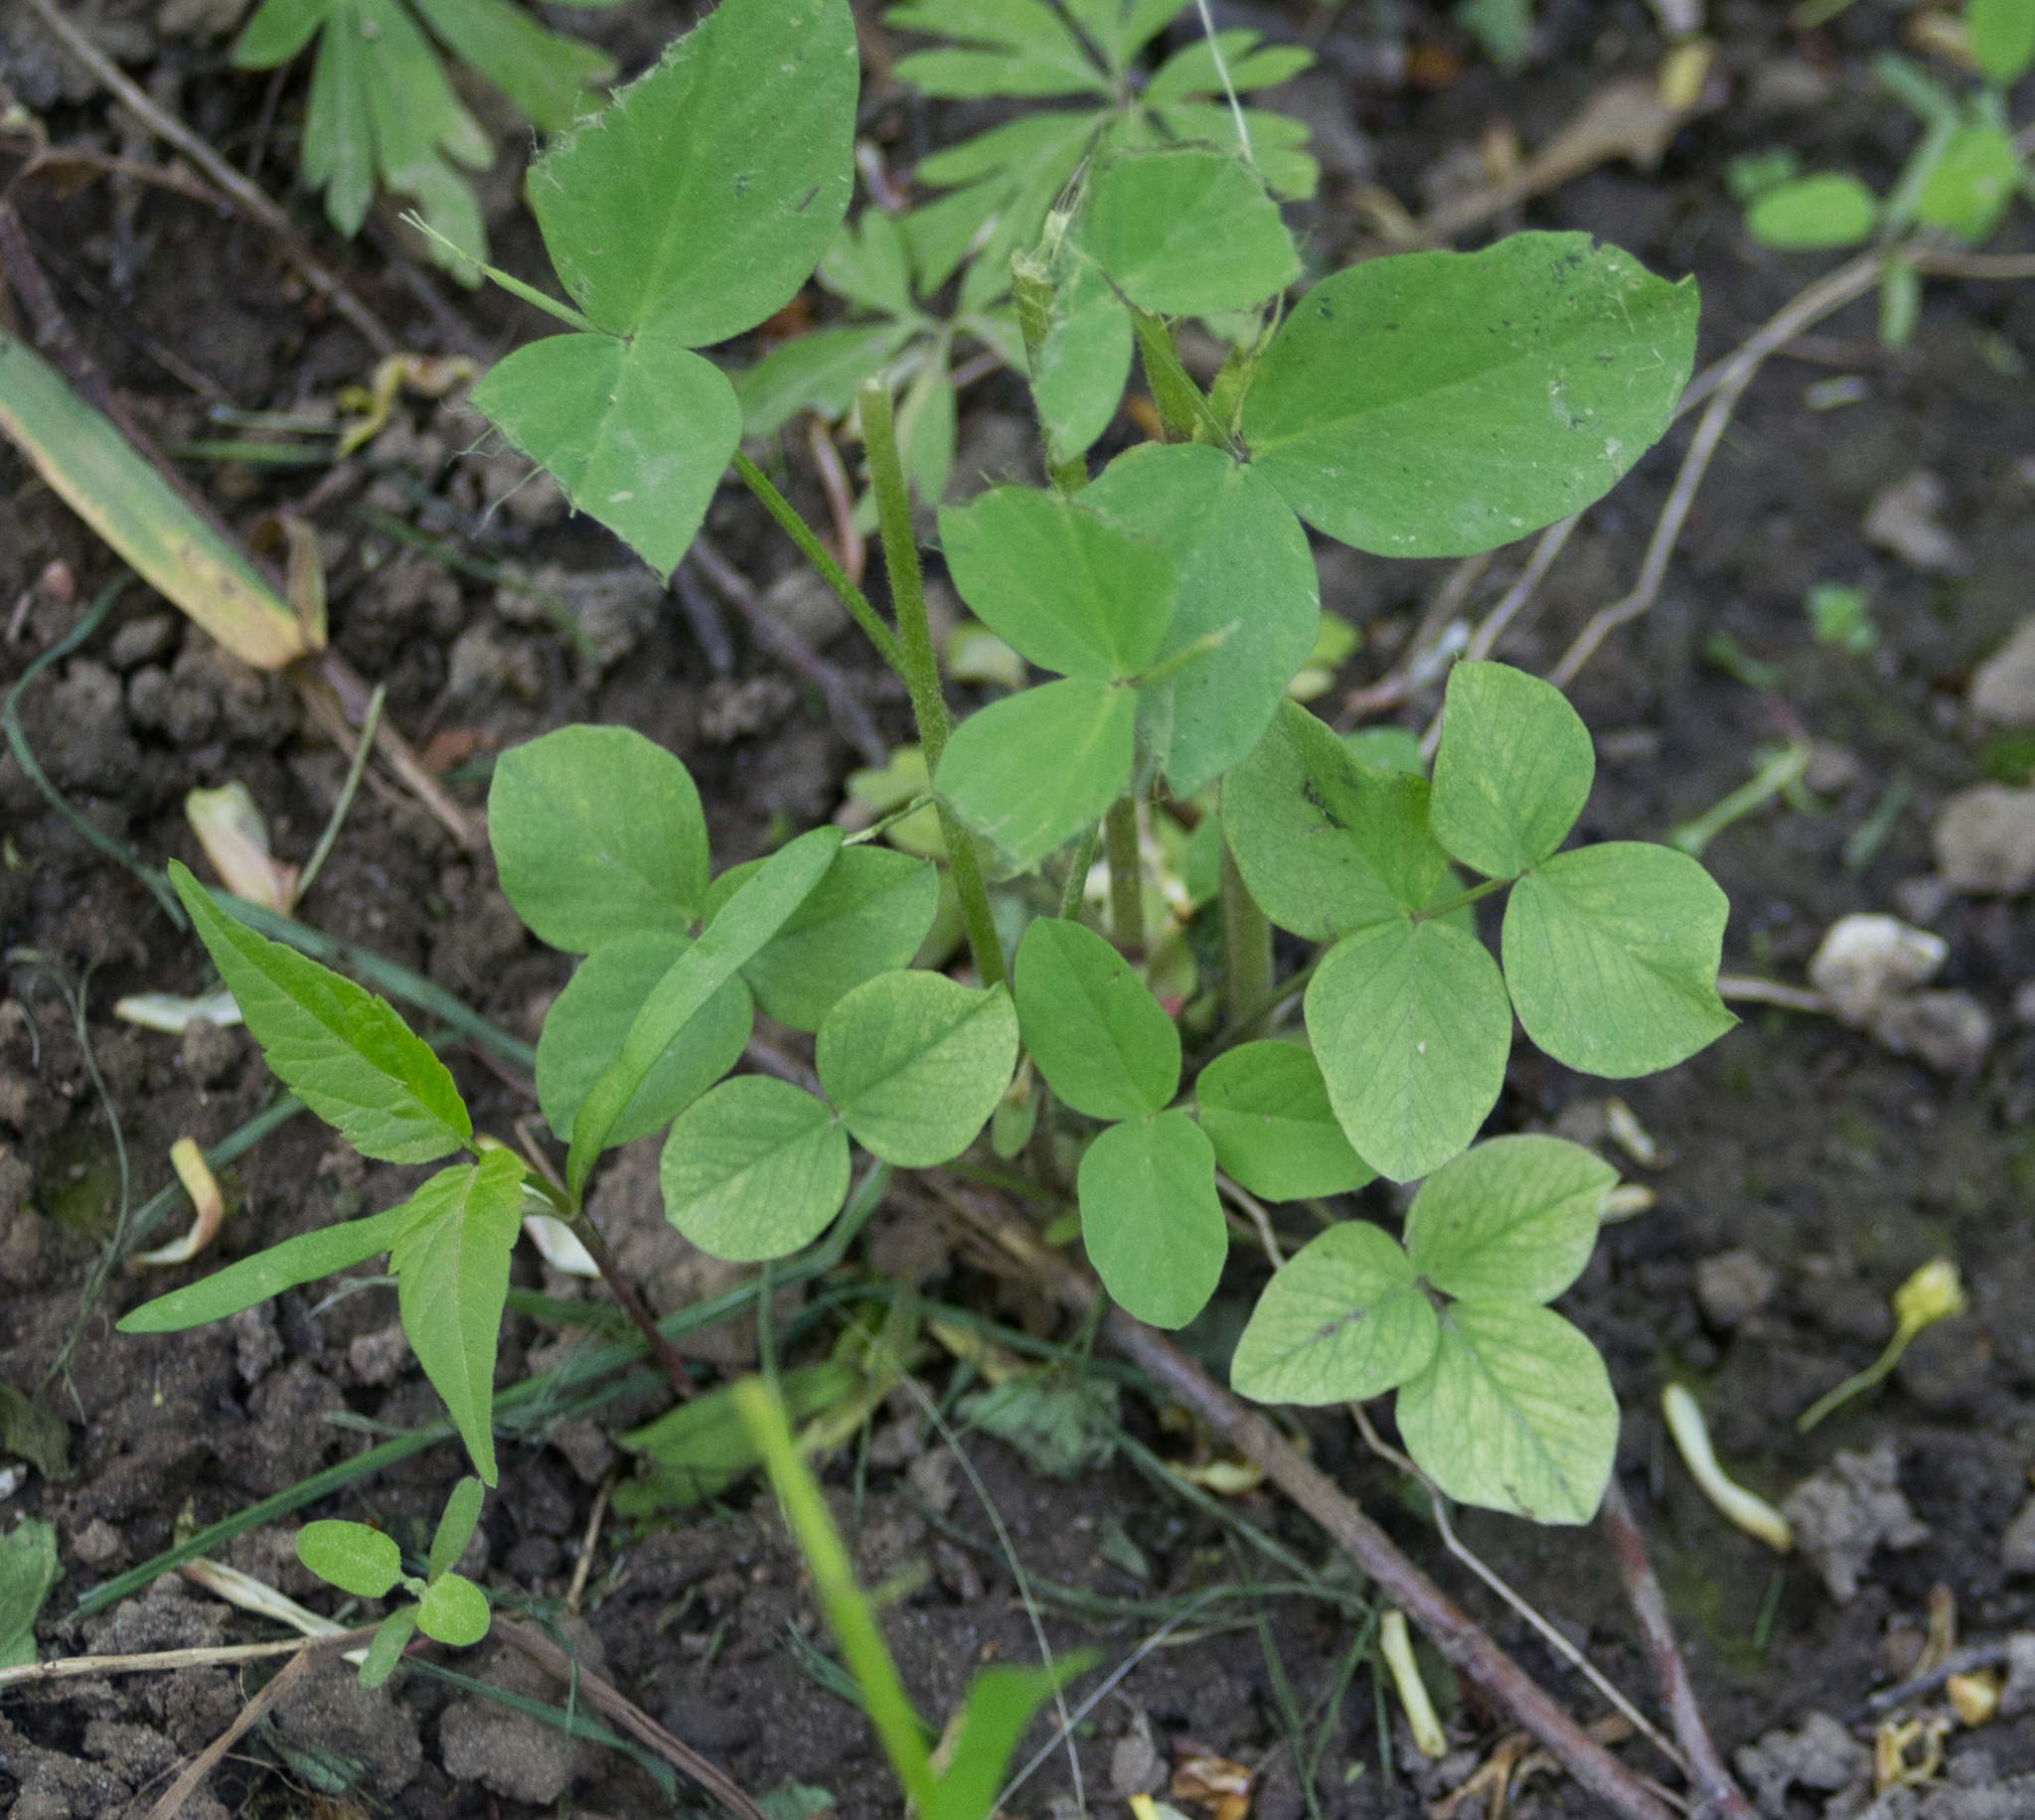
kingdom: Plantae
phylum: Tracheophyta
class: Magnoliopsida
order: Fabales
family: Fabaceae
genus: Galega
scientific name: Galega orientalis
